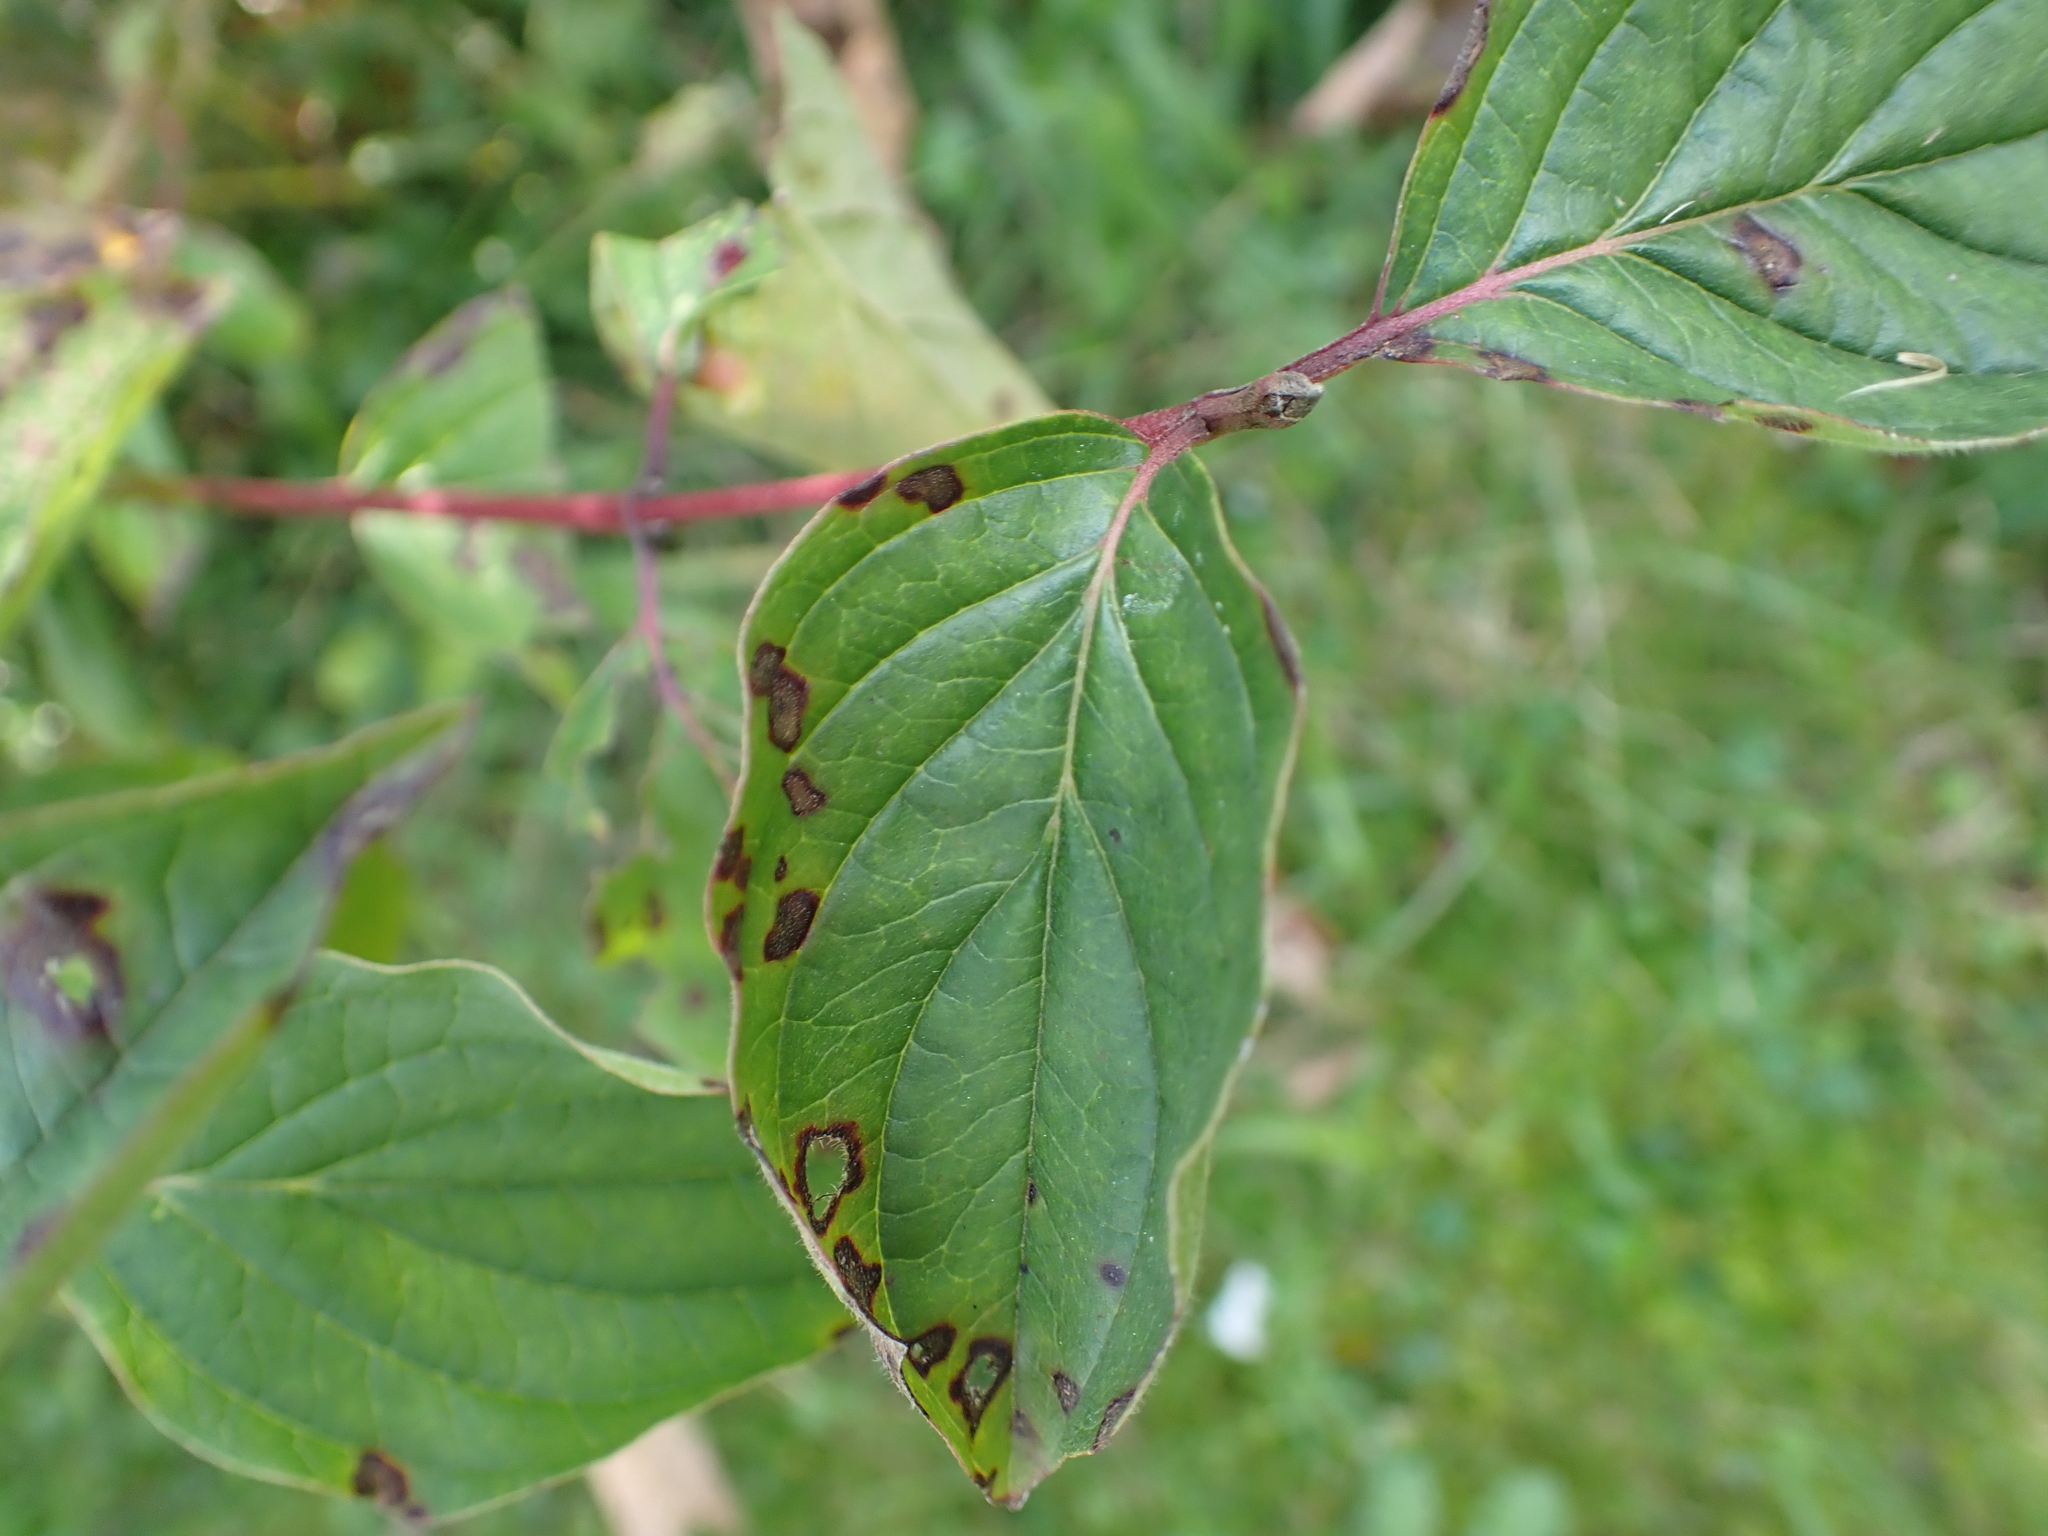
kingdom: Plantae
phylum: Tracheophyta
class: Magnoliopsida
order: Cornales
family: Cornaceae
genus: Cornus
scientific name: Cornus sanguinea
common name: Dogwood
